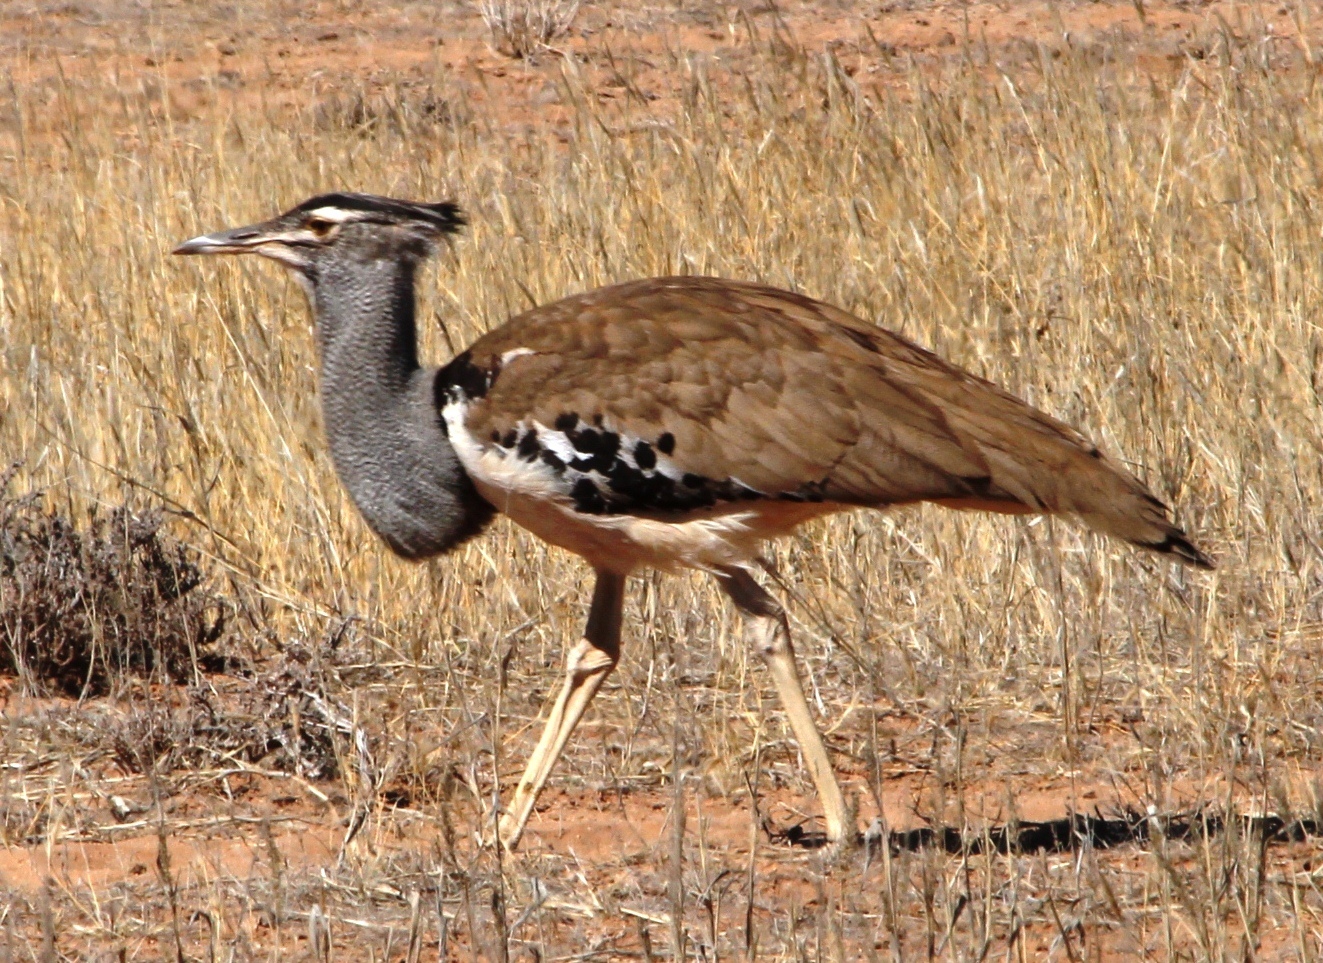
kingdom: Animalia
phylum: Chordata
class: Aves
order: Otidiformes
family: Otididae
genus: Ardeotis
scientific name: Ardeotis kori
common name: Kori bustard
